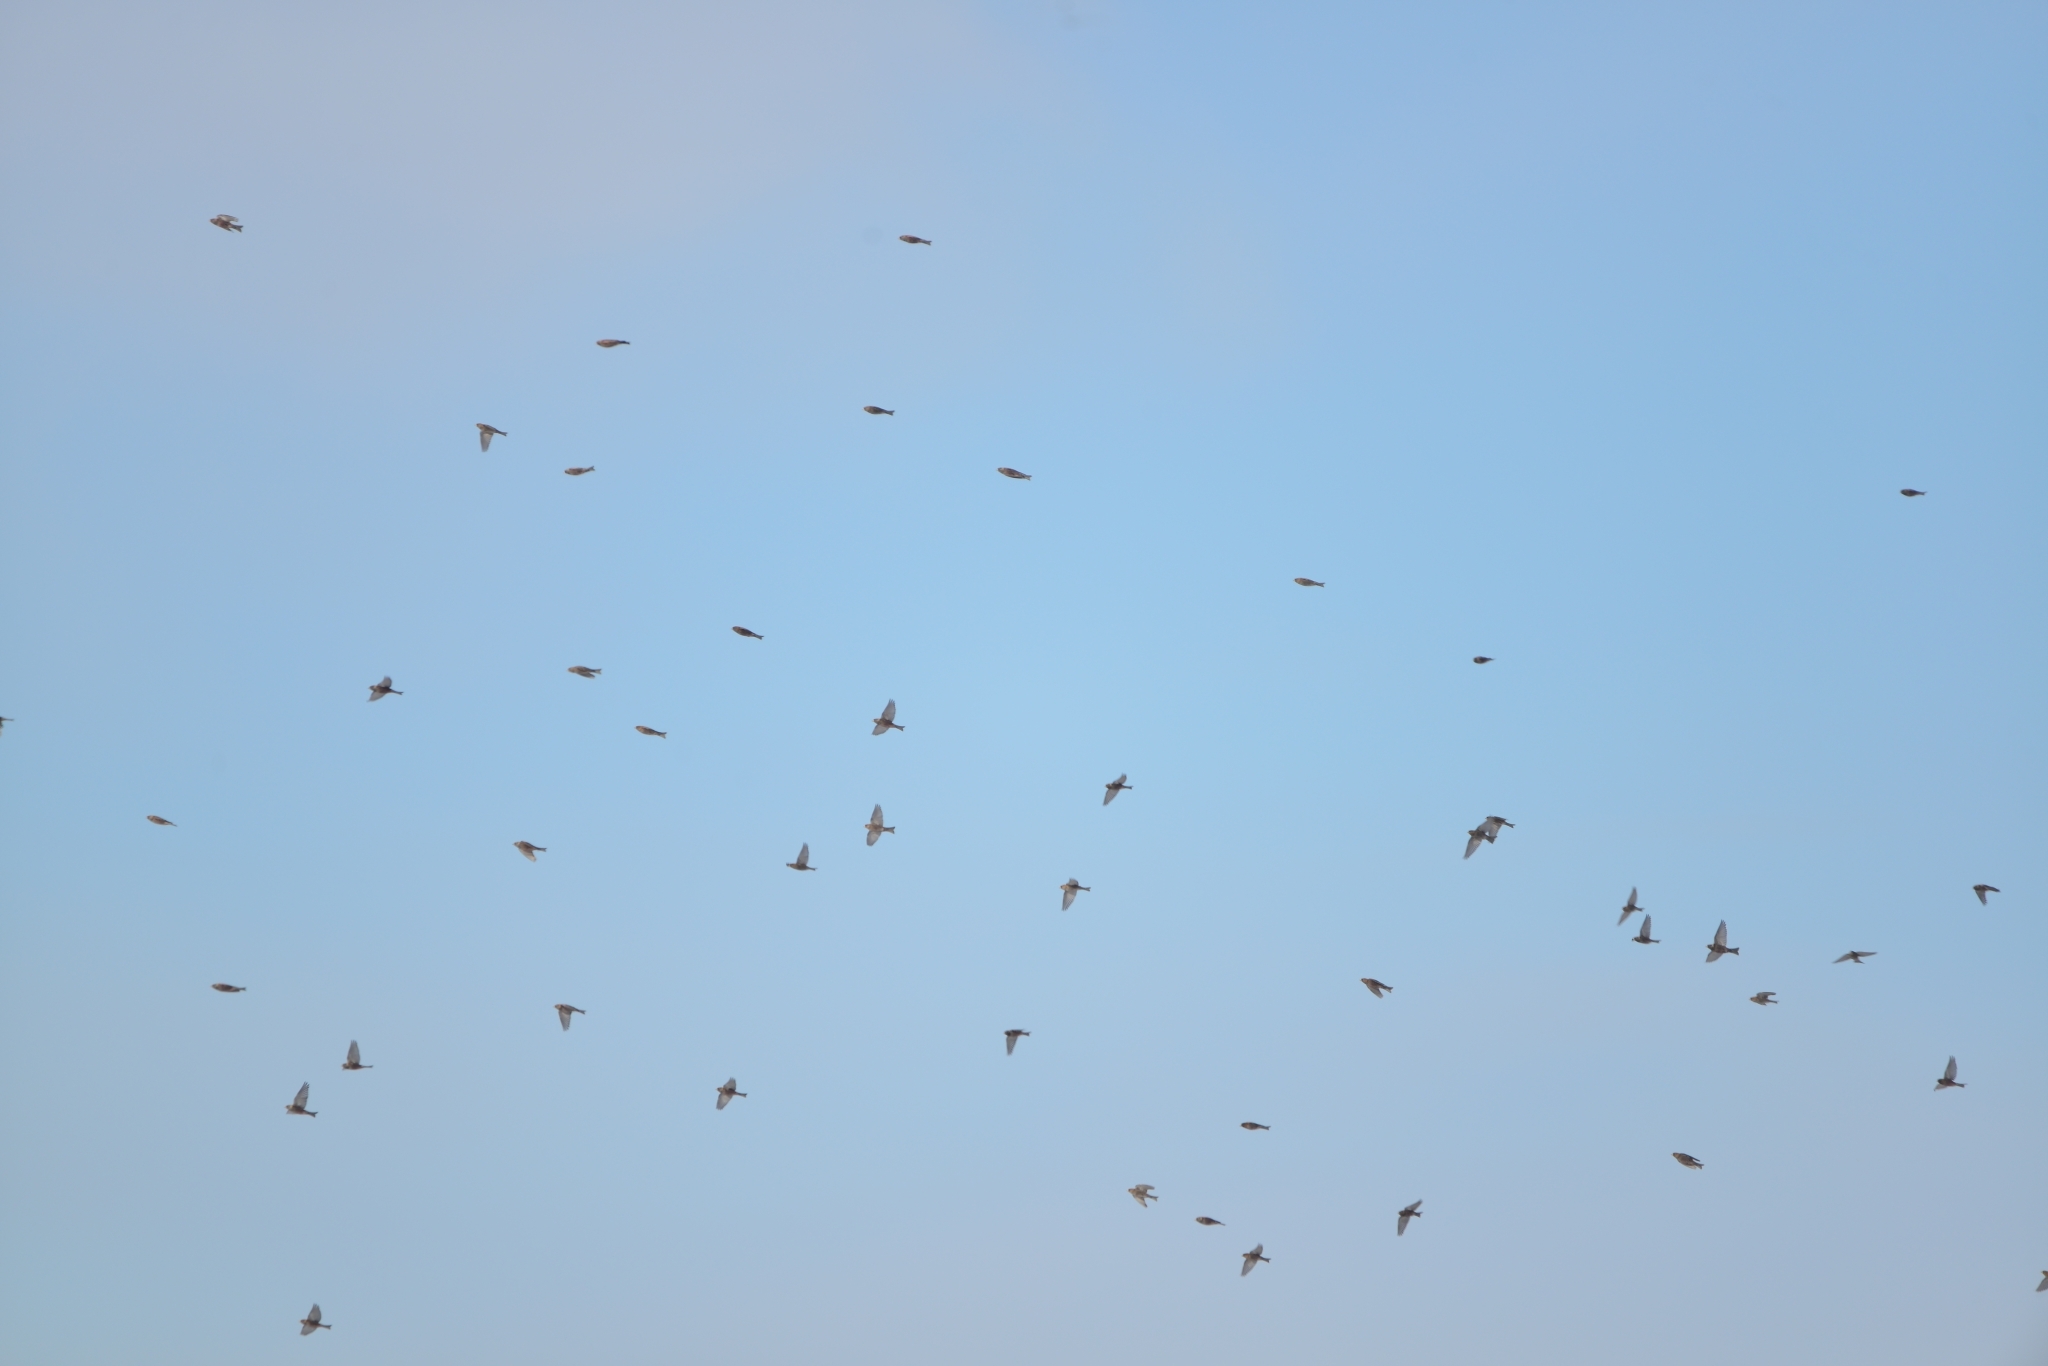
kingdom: Animalia
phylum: Chordata
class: Aves
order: Passeriformes
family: Fringillidae
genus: Leucosticte
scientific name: Leucosticte arctoa
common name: Asian rosy finch
